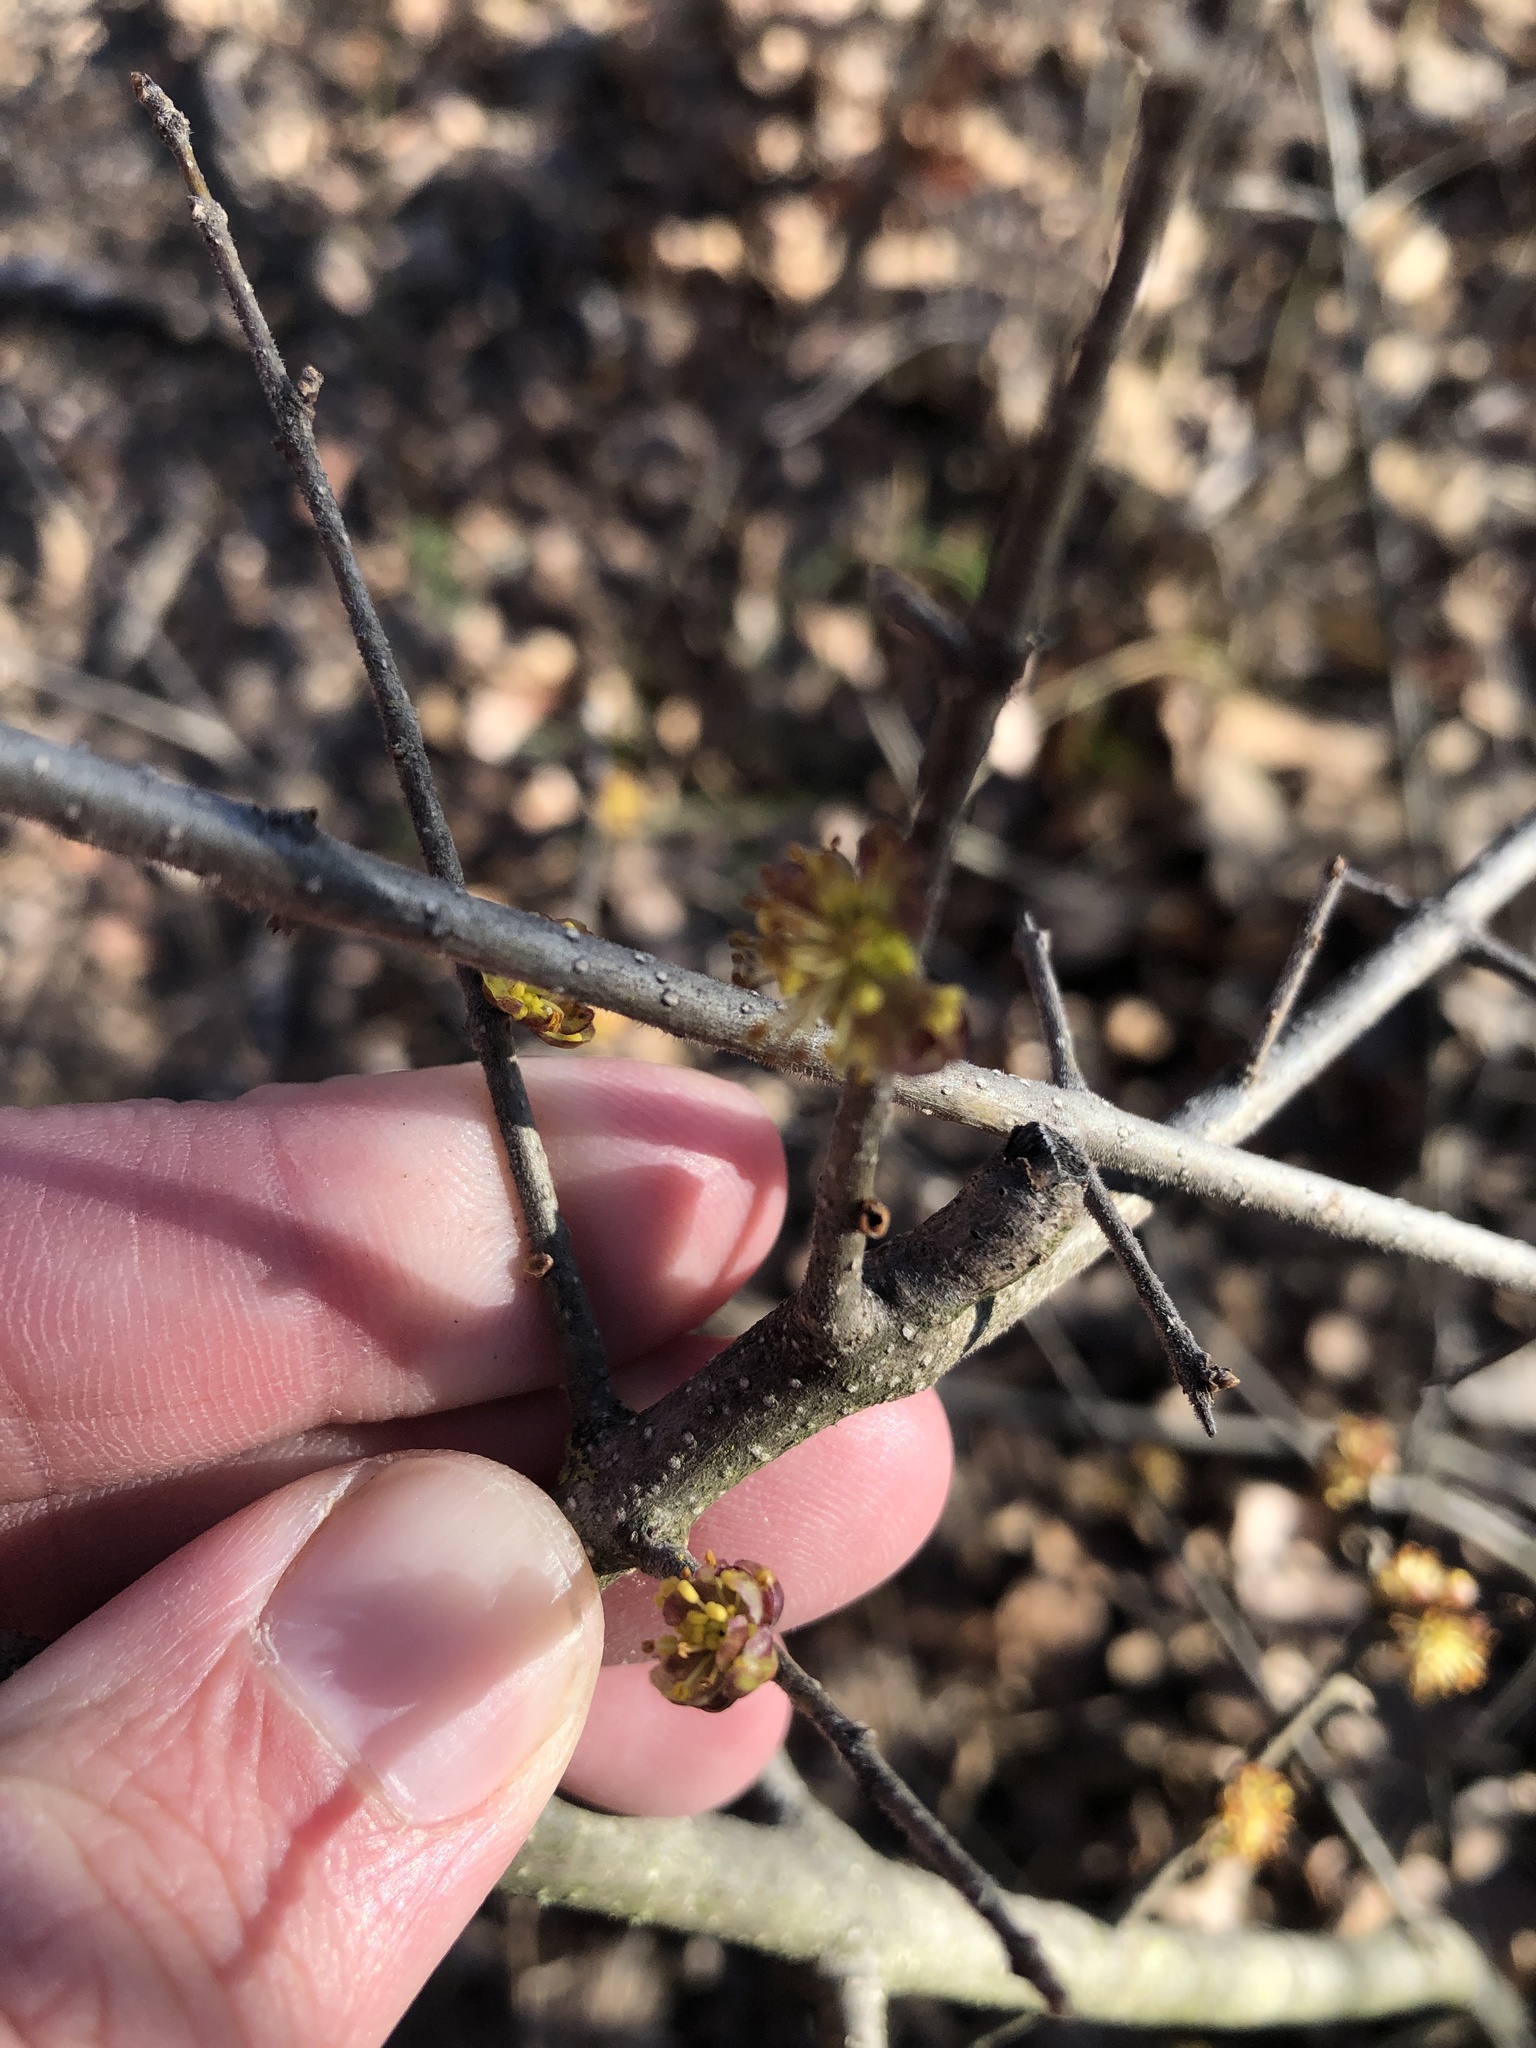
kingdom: Plantae
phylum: Tracheophyta
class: Magnoliopsida
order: Lamiales
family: Oleaceae
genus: Forestiera
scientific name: Forestiera pubescens
